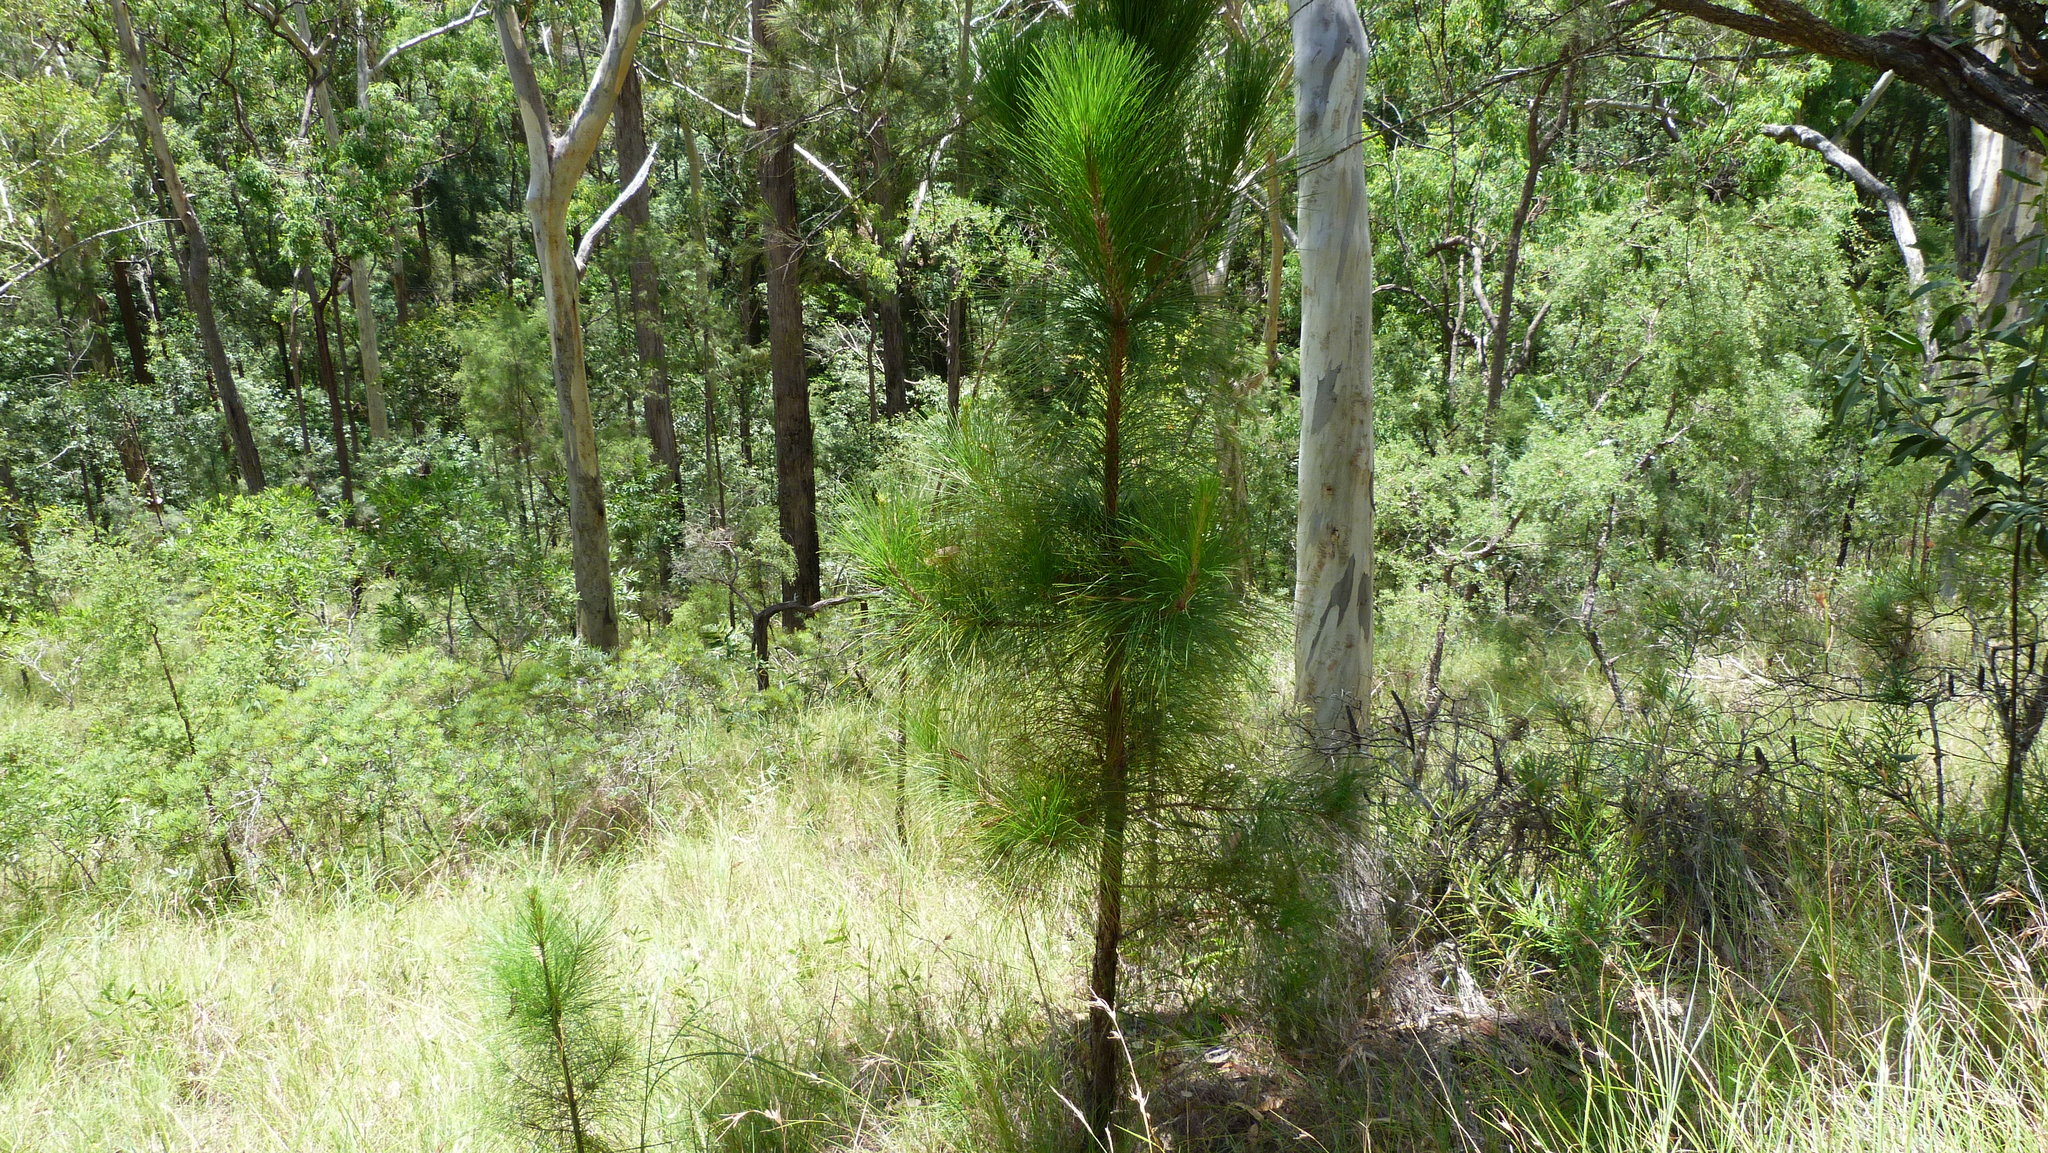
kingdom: Plantae
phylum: Tracheophyta
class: Pinopsida
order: Pinales
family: Pinaceae
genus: Pinus
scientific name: Pinus elliottii
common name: Slash pine
